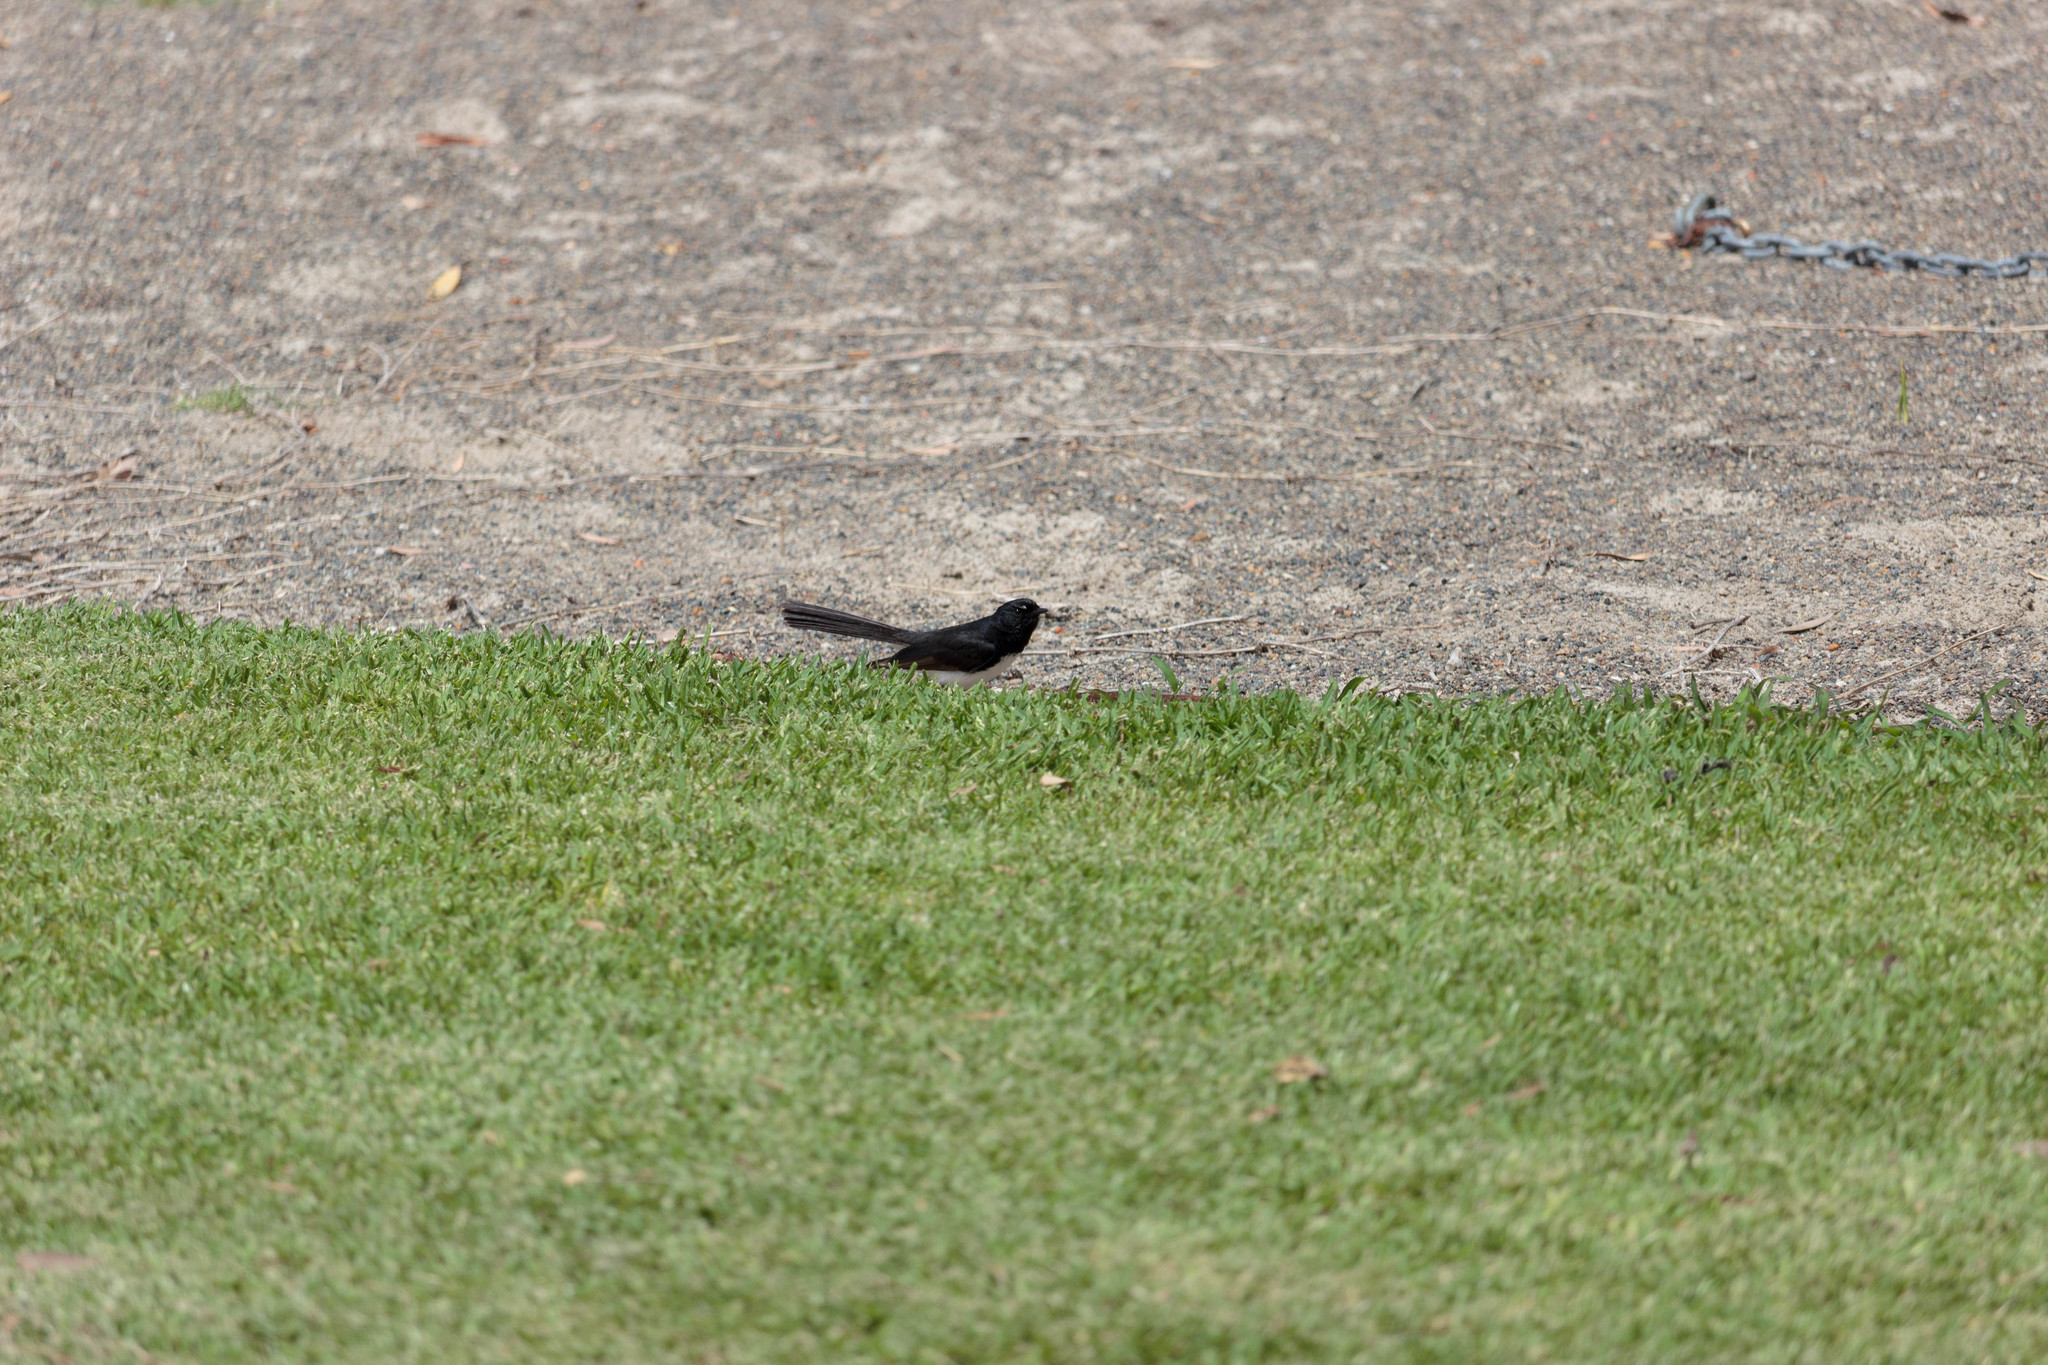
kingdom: Animalia
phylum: Chordata
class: Aves
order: Passeriformes
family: Rhipiduridae
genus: Rhipidura
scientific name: Rhipidura leucophrys
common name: Willie wagtail
